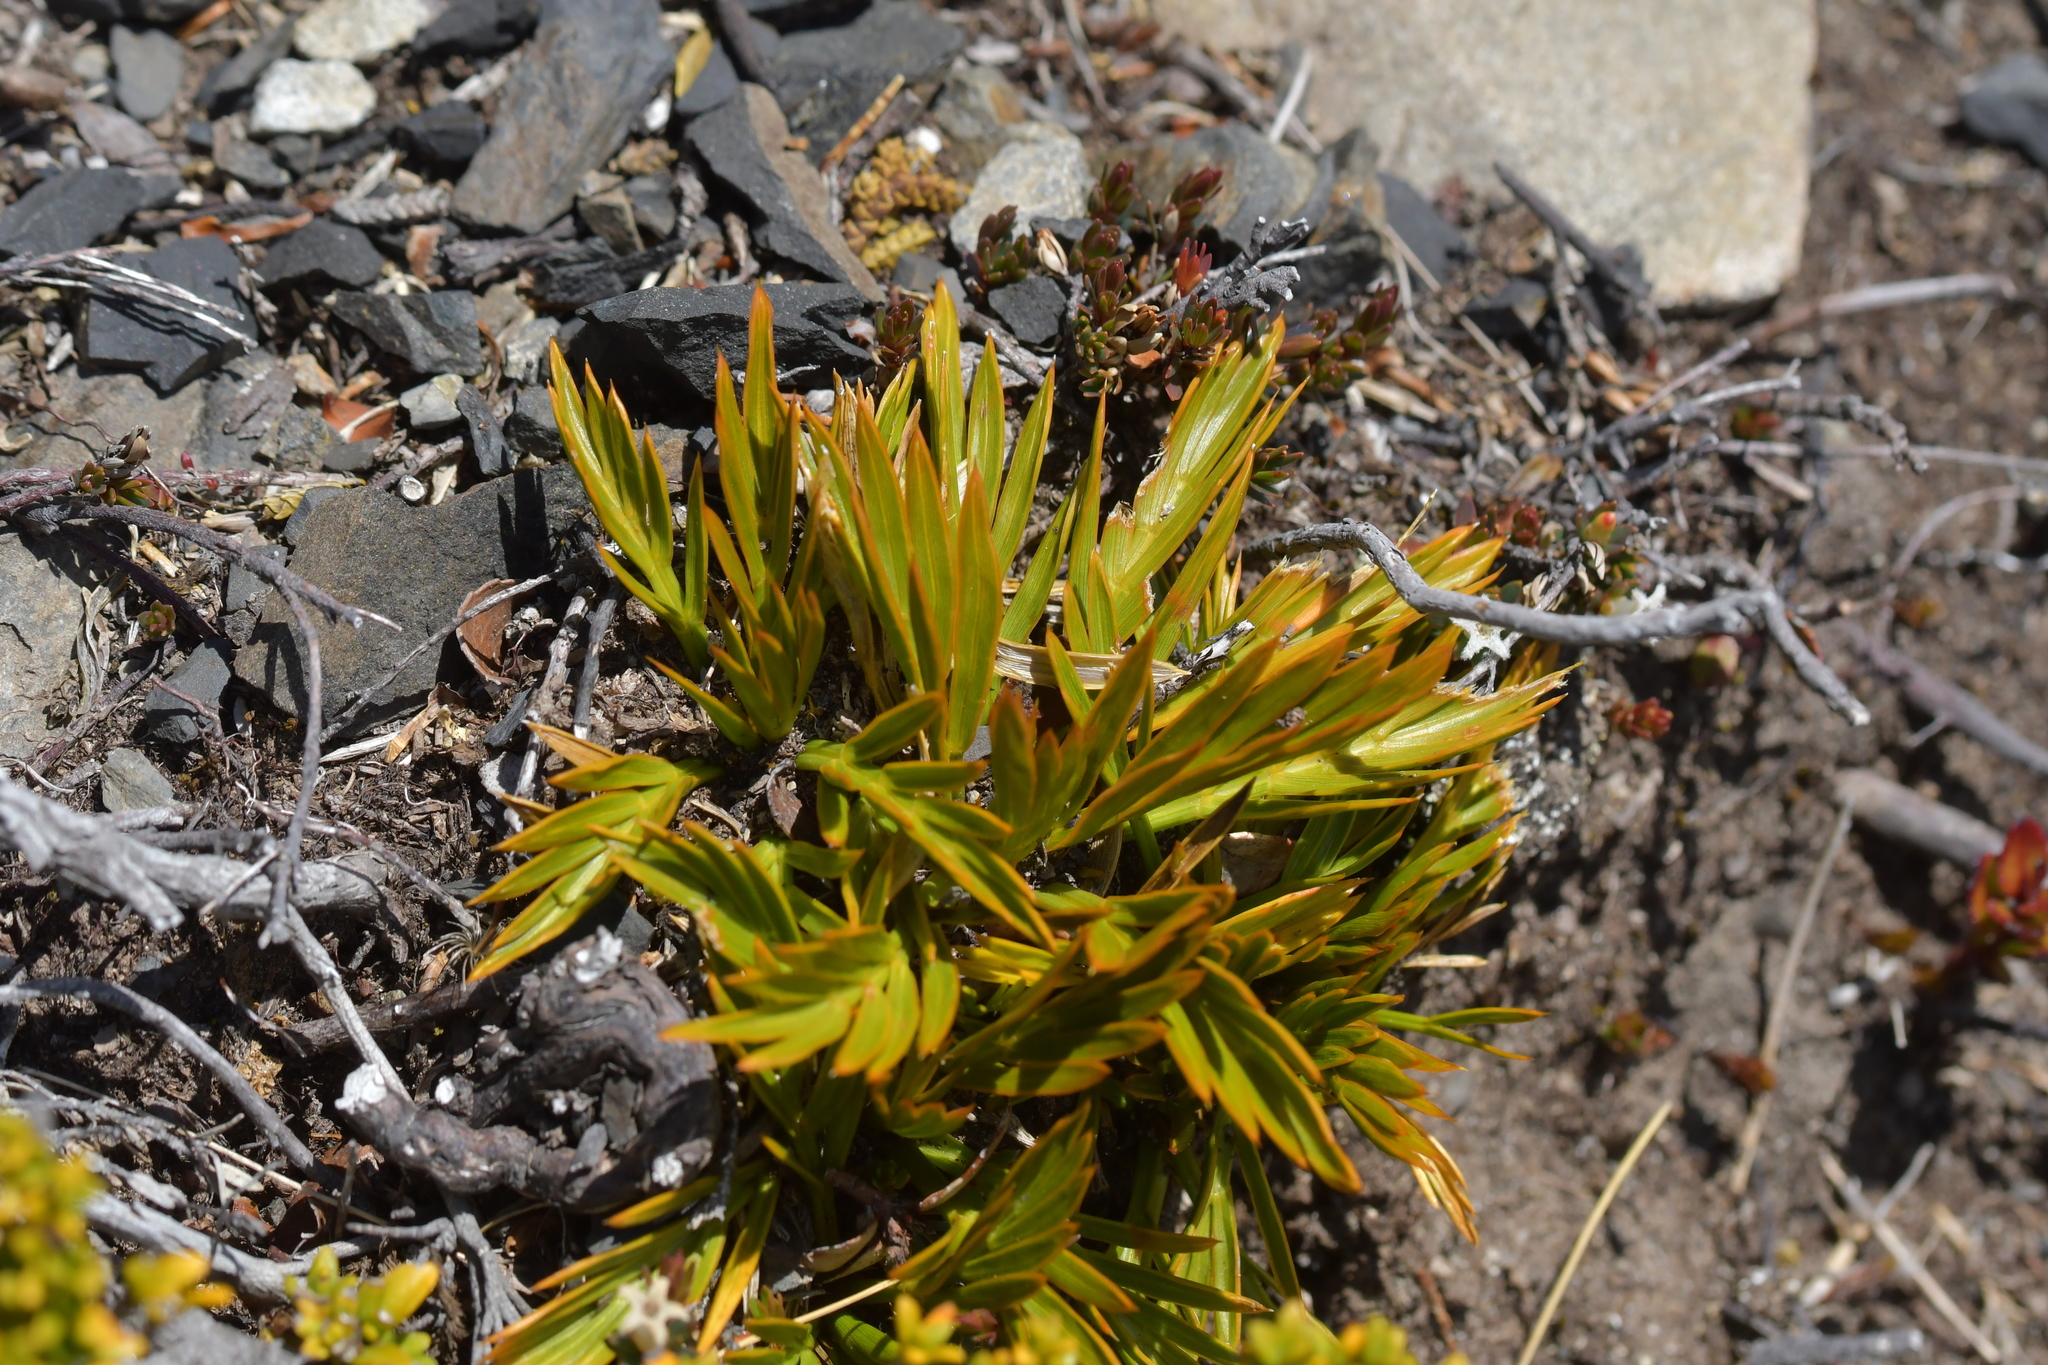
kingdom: Plantae
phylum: Tracheophyta
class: Magnoliopsida
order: Apiales
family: Apiaceae
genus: Aciphylla
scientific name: Aciphylla similis
